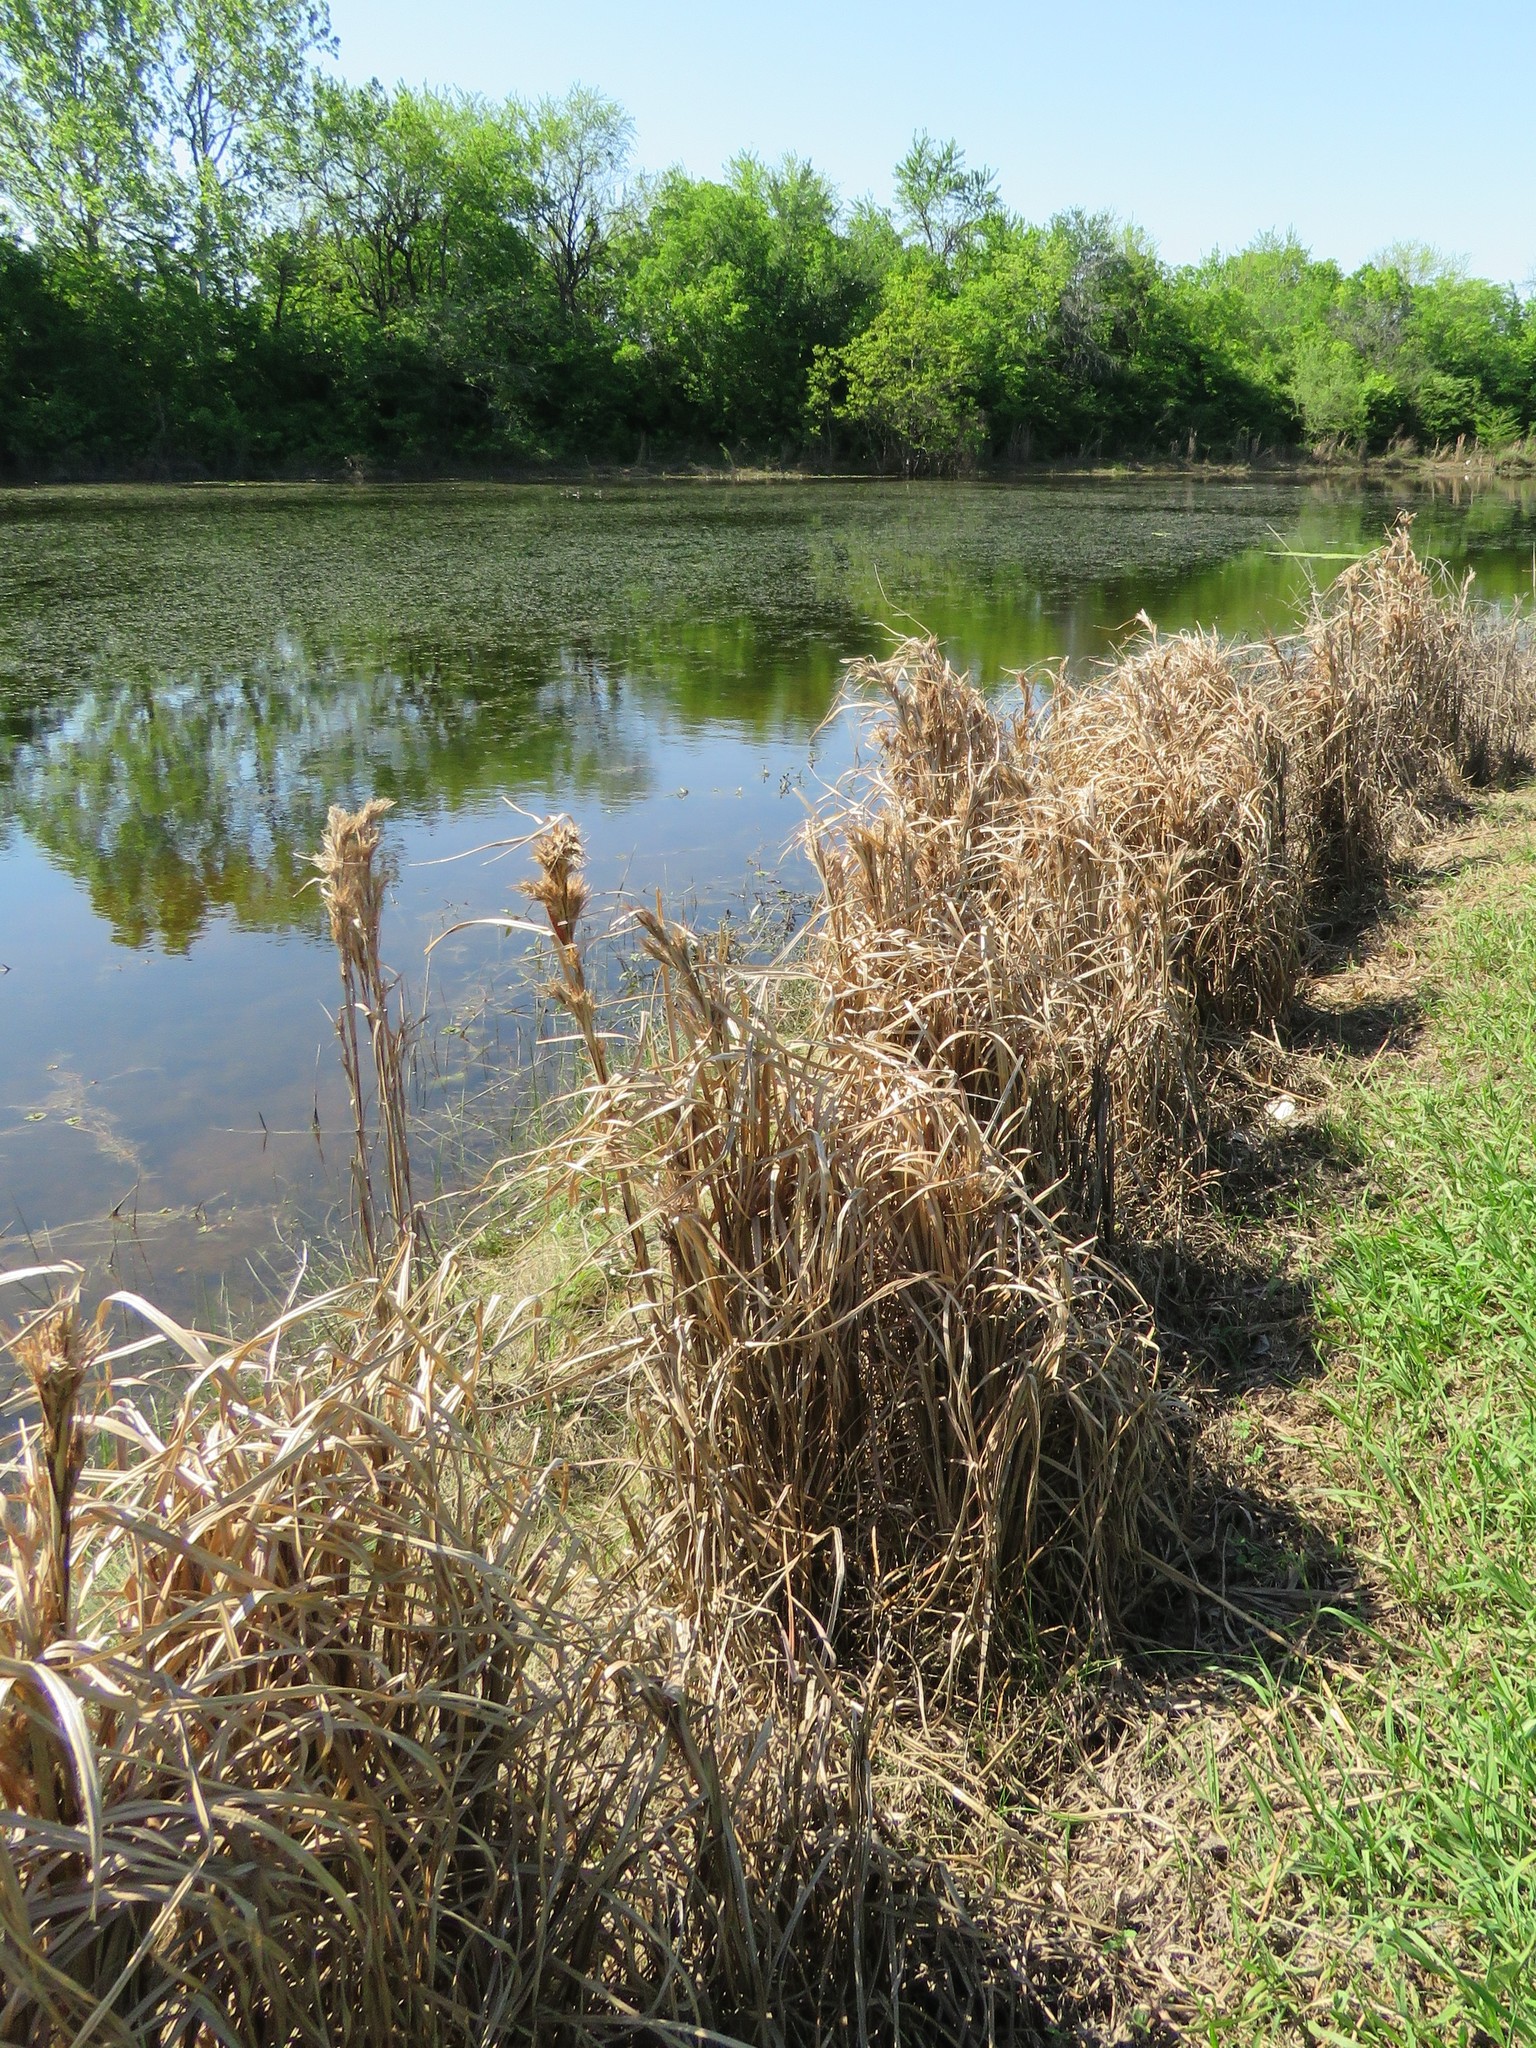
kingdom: Plantae
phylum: Tracheophyta
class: Liliopsida
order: Poales
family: Poaceae
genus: Andropogon
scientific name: Andropogon tenuispatheus
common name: Bushy bluestem
